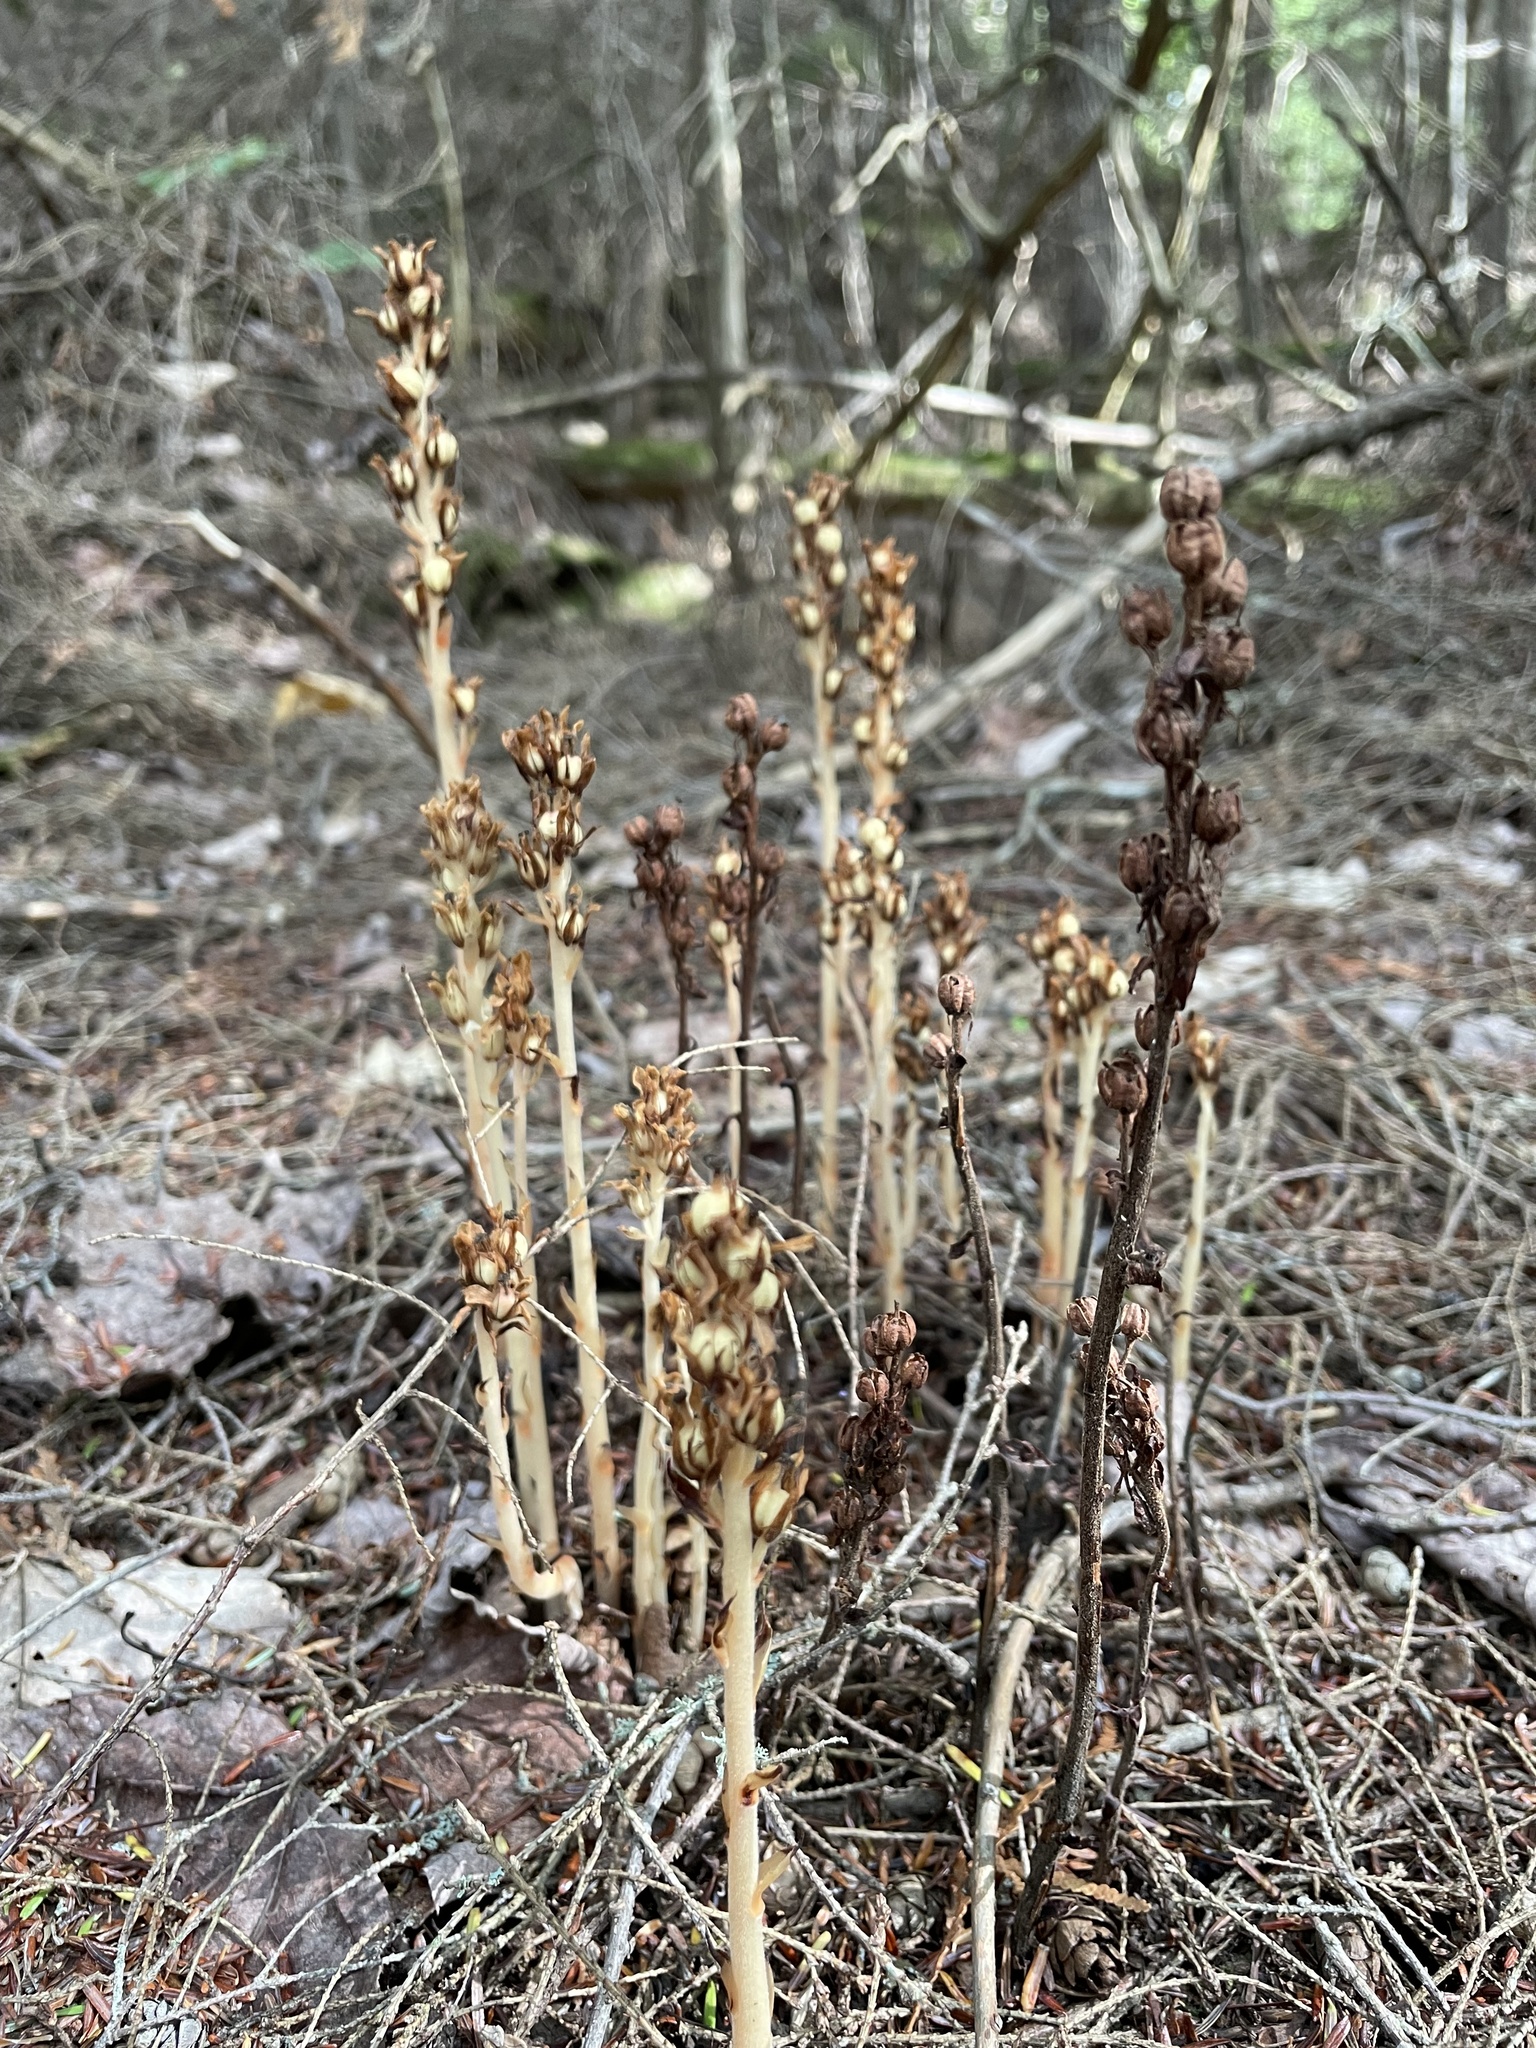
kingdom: Plantae
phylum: Tracheophyta
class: Magnoliopsida
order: Ericales
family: Ericaceae
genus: Hypopitys
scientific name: Hypopitys monotropa
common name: Yellow bird's-nest
